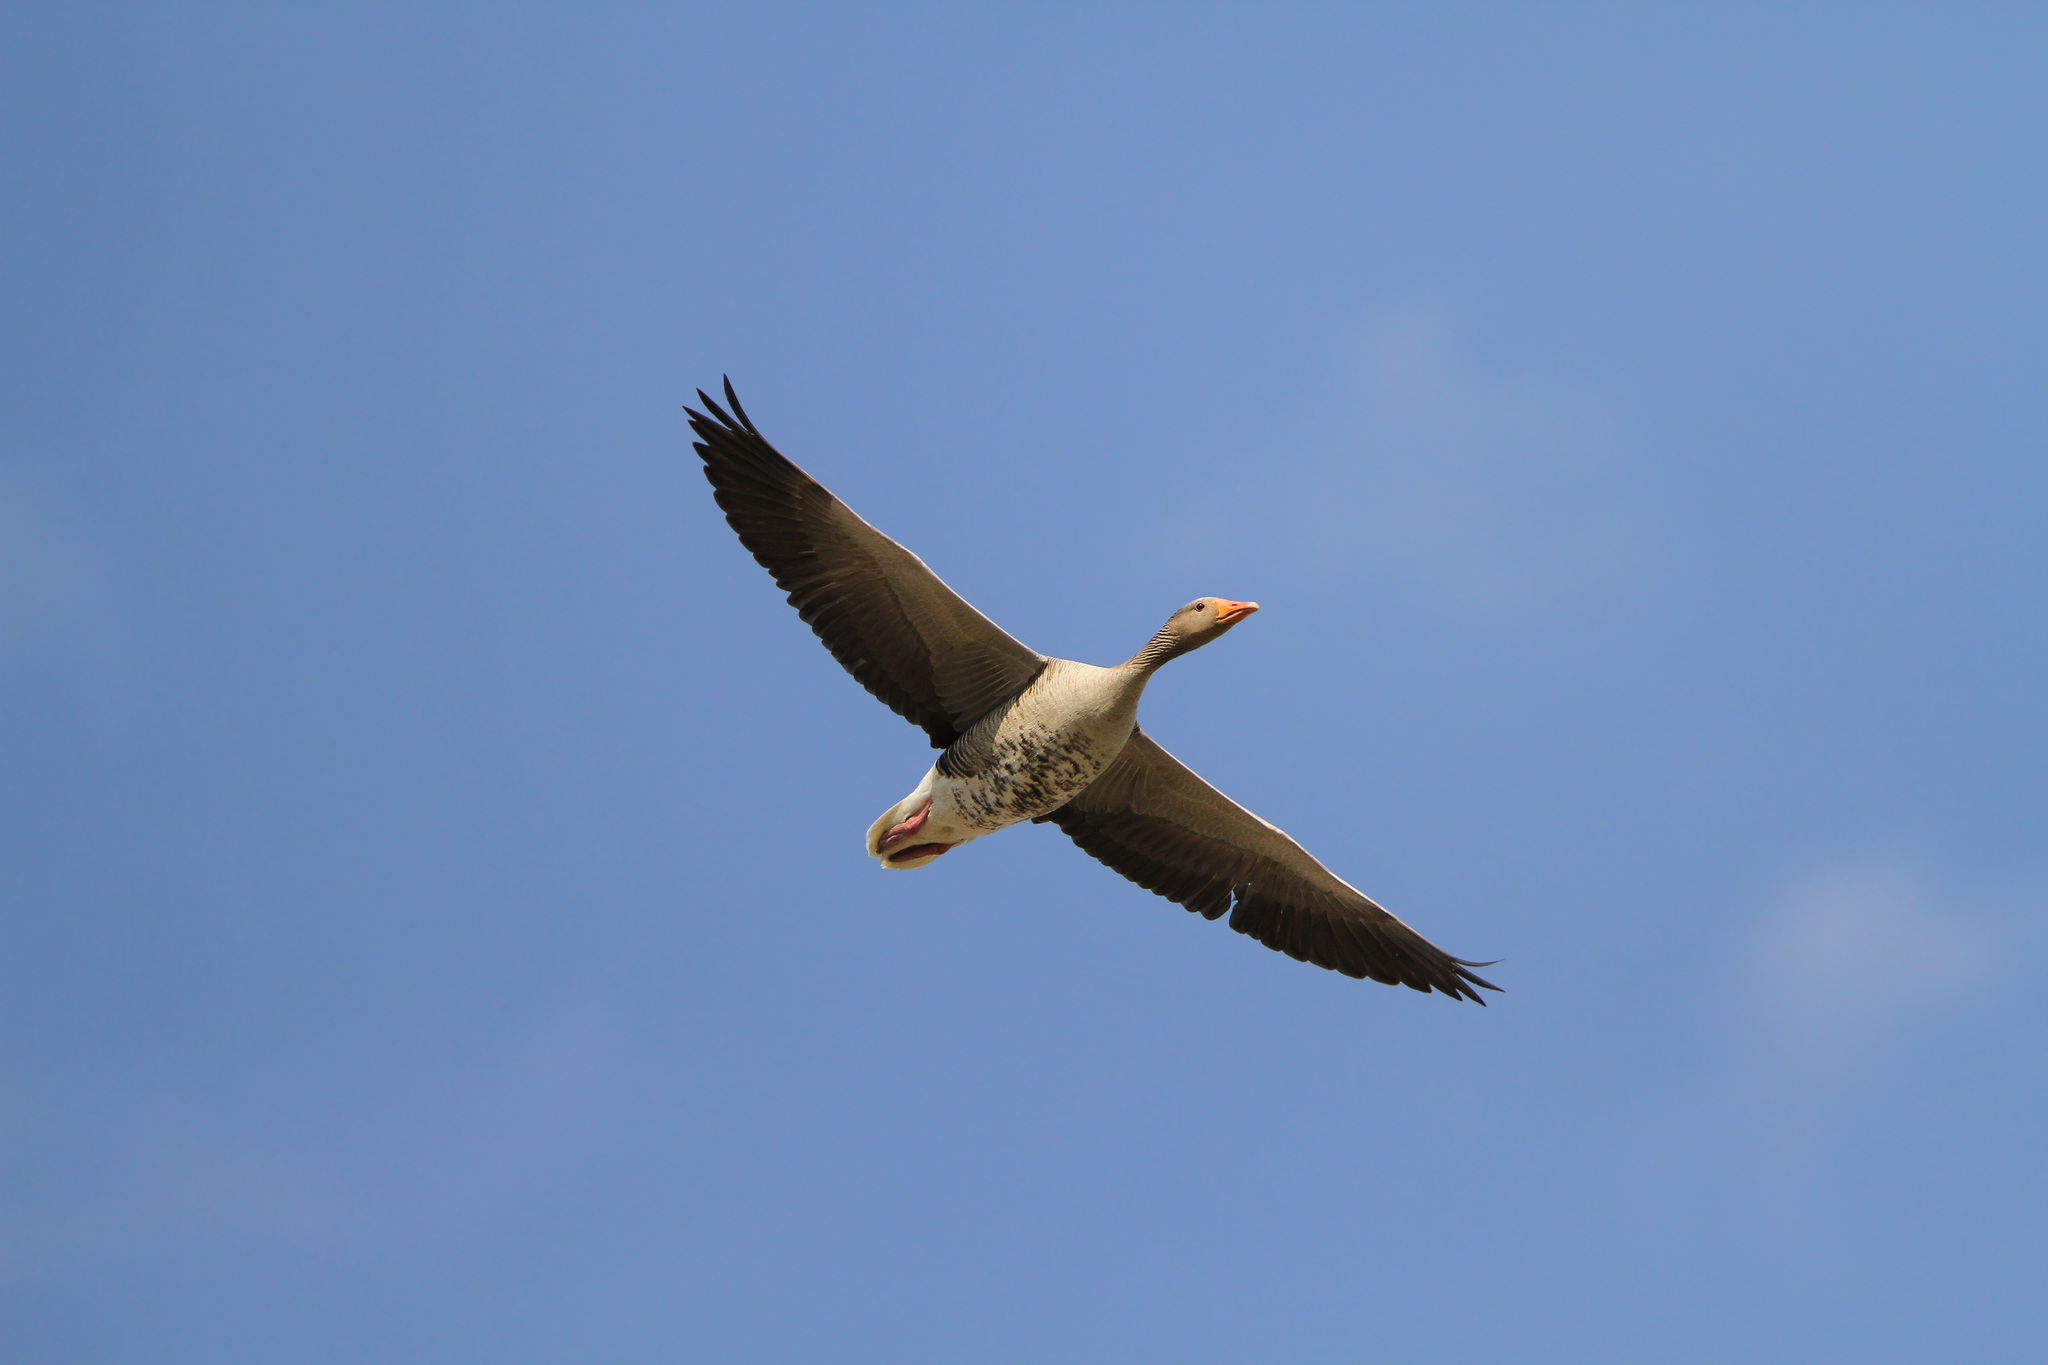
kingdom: Animalia
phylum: Chordata
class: Aves
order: Anseriformes
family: Anatidae
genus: Anser
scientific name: Anser anser
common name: Greylag goose
